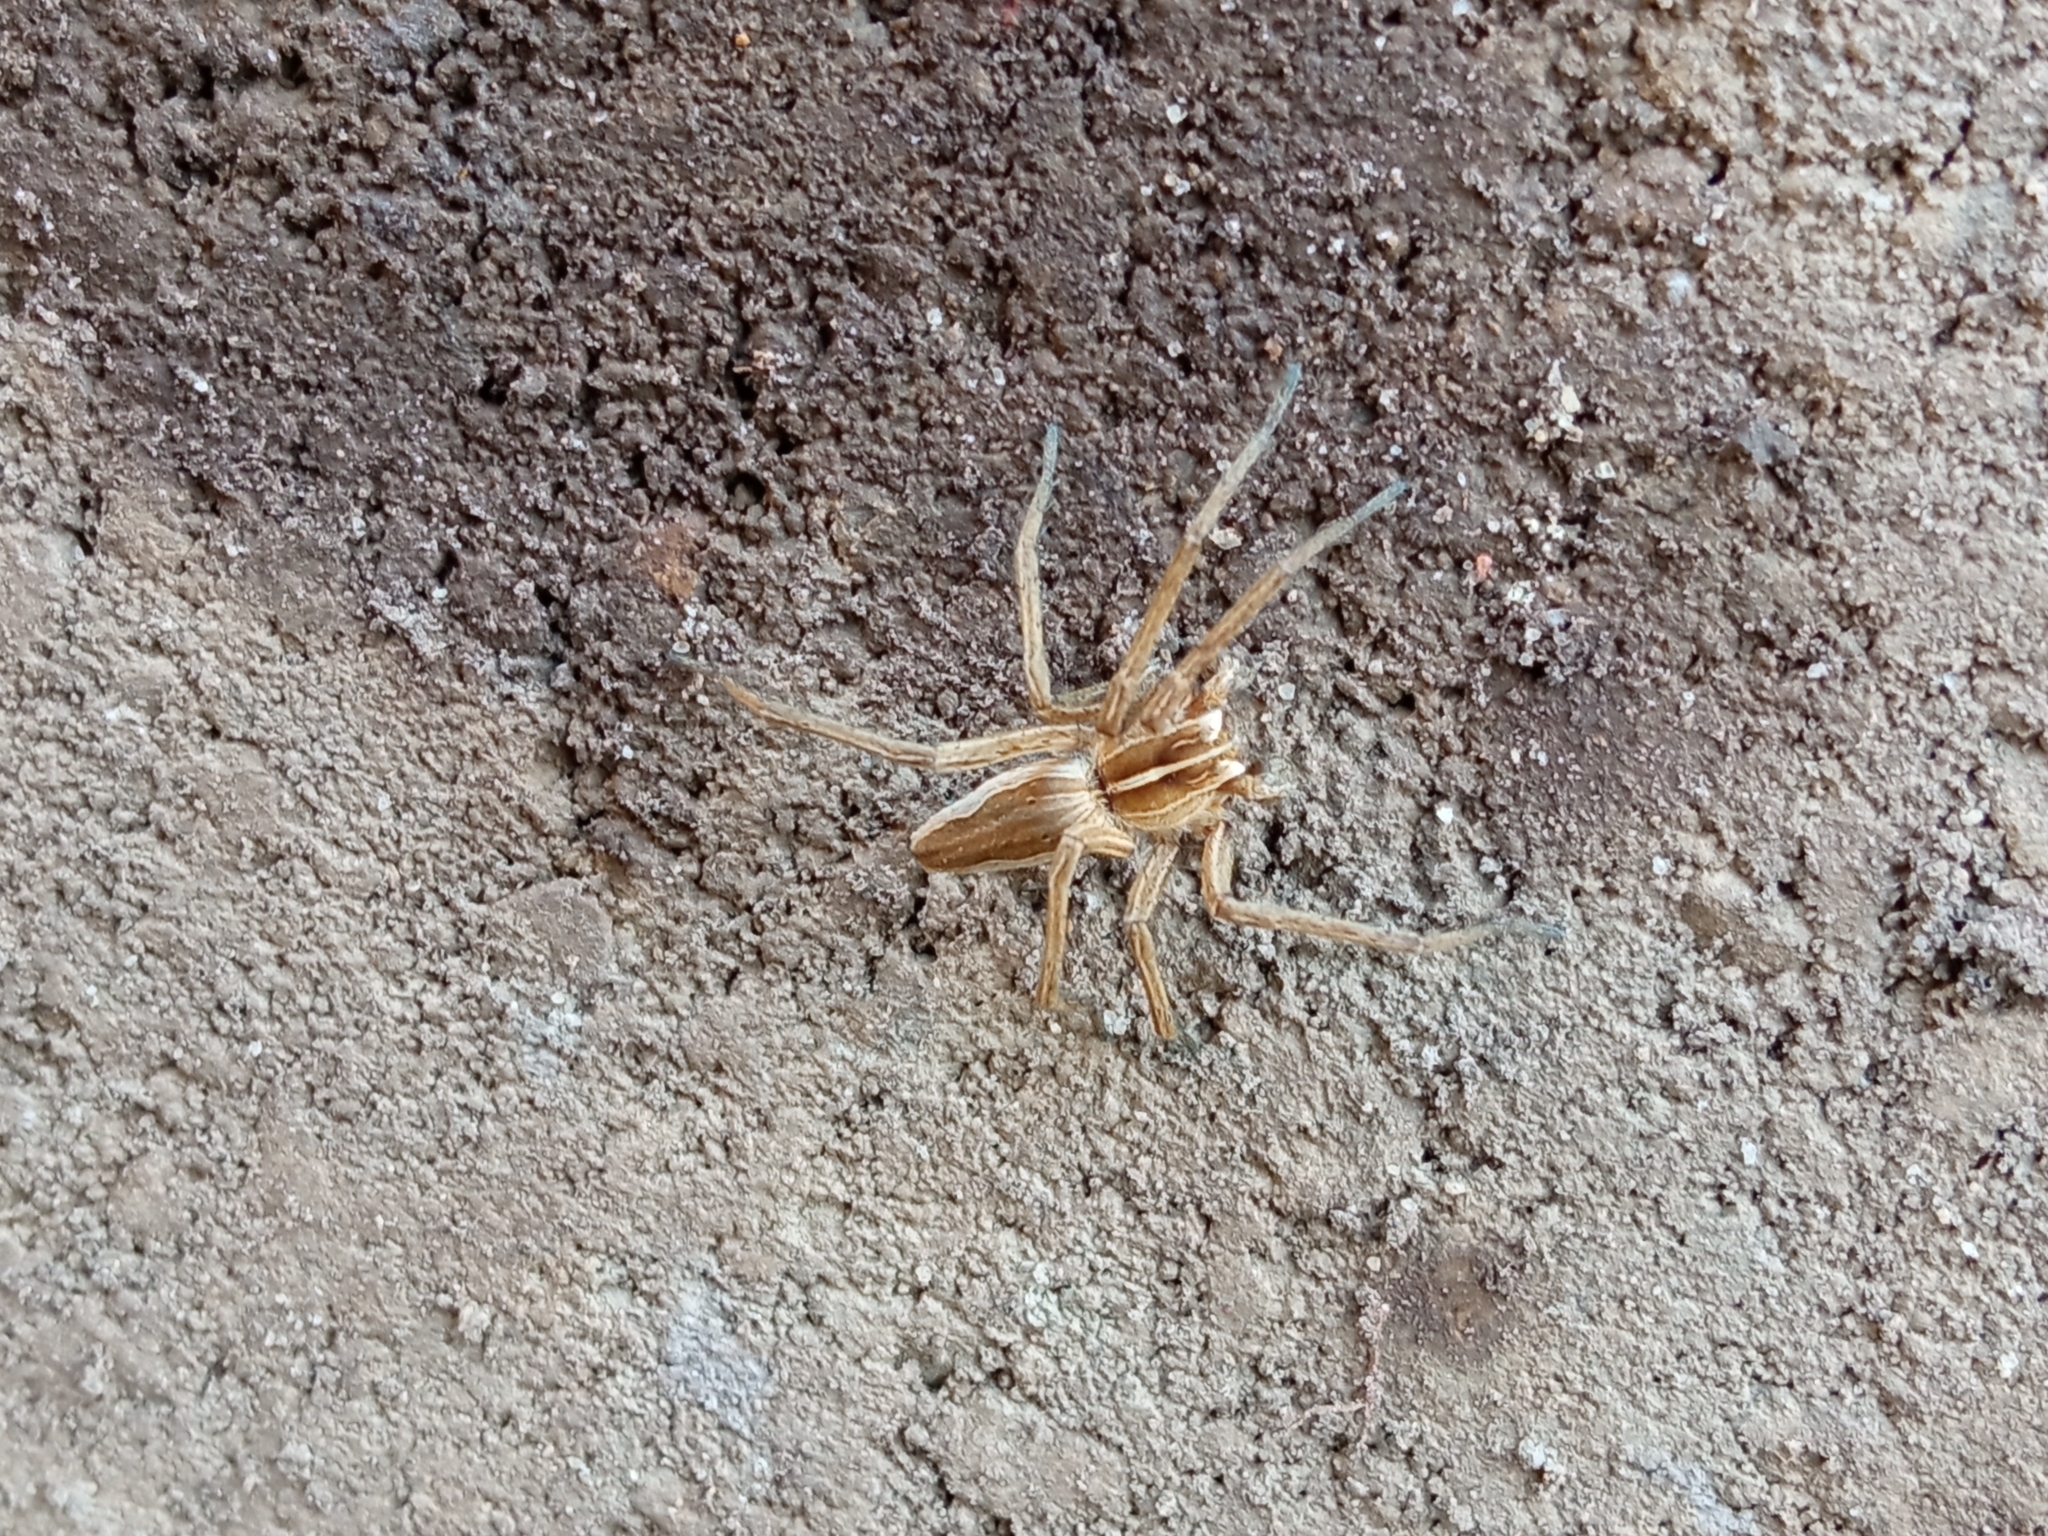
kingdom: Animalia
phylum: Arthropoda
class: Arachnida
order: Araneae
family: Pisauridae
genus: Pisaura
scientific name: Pisaura mirabilis
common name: Tent spider
